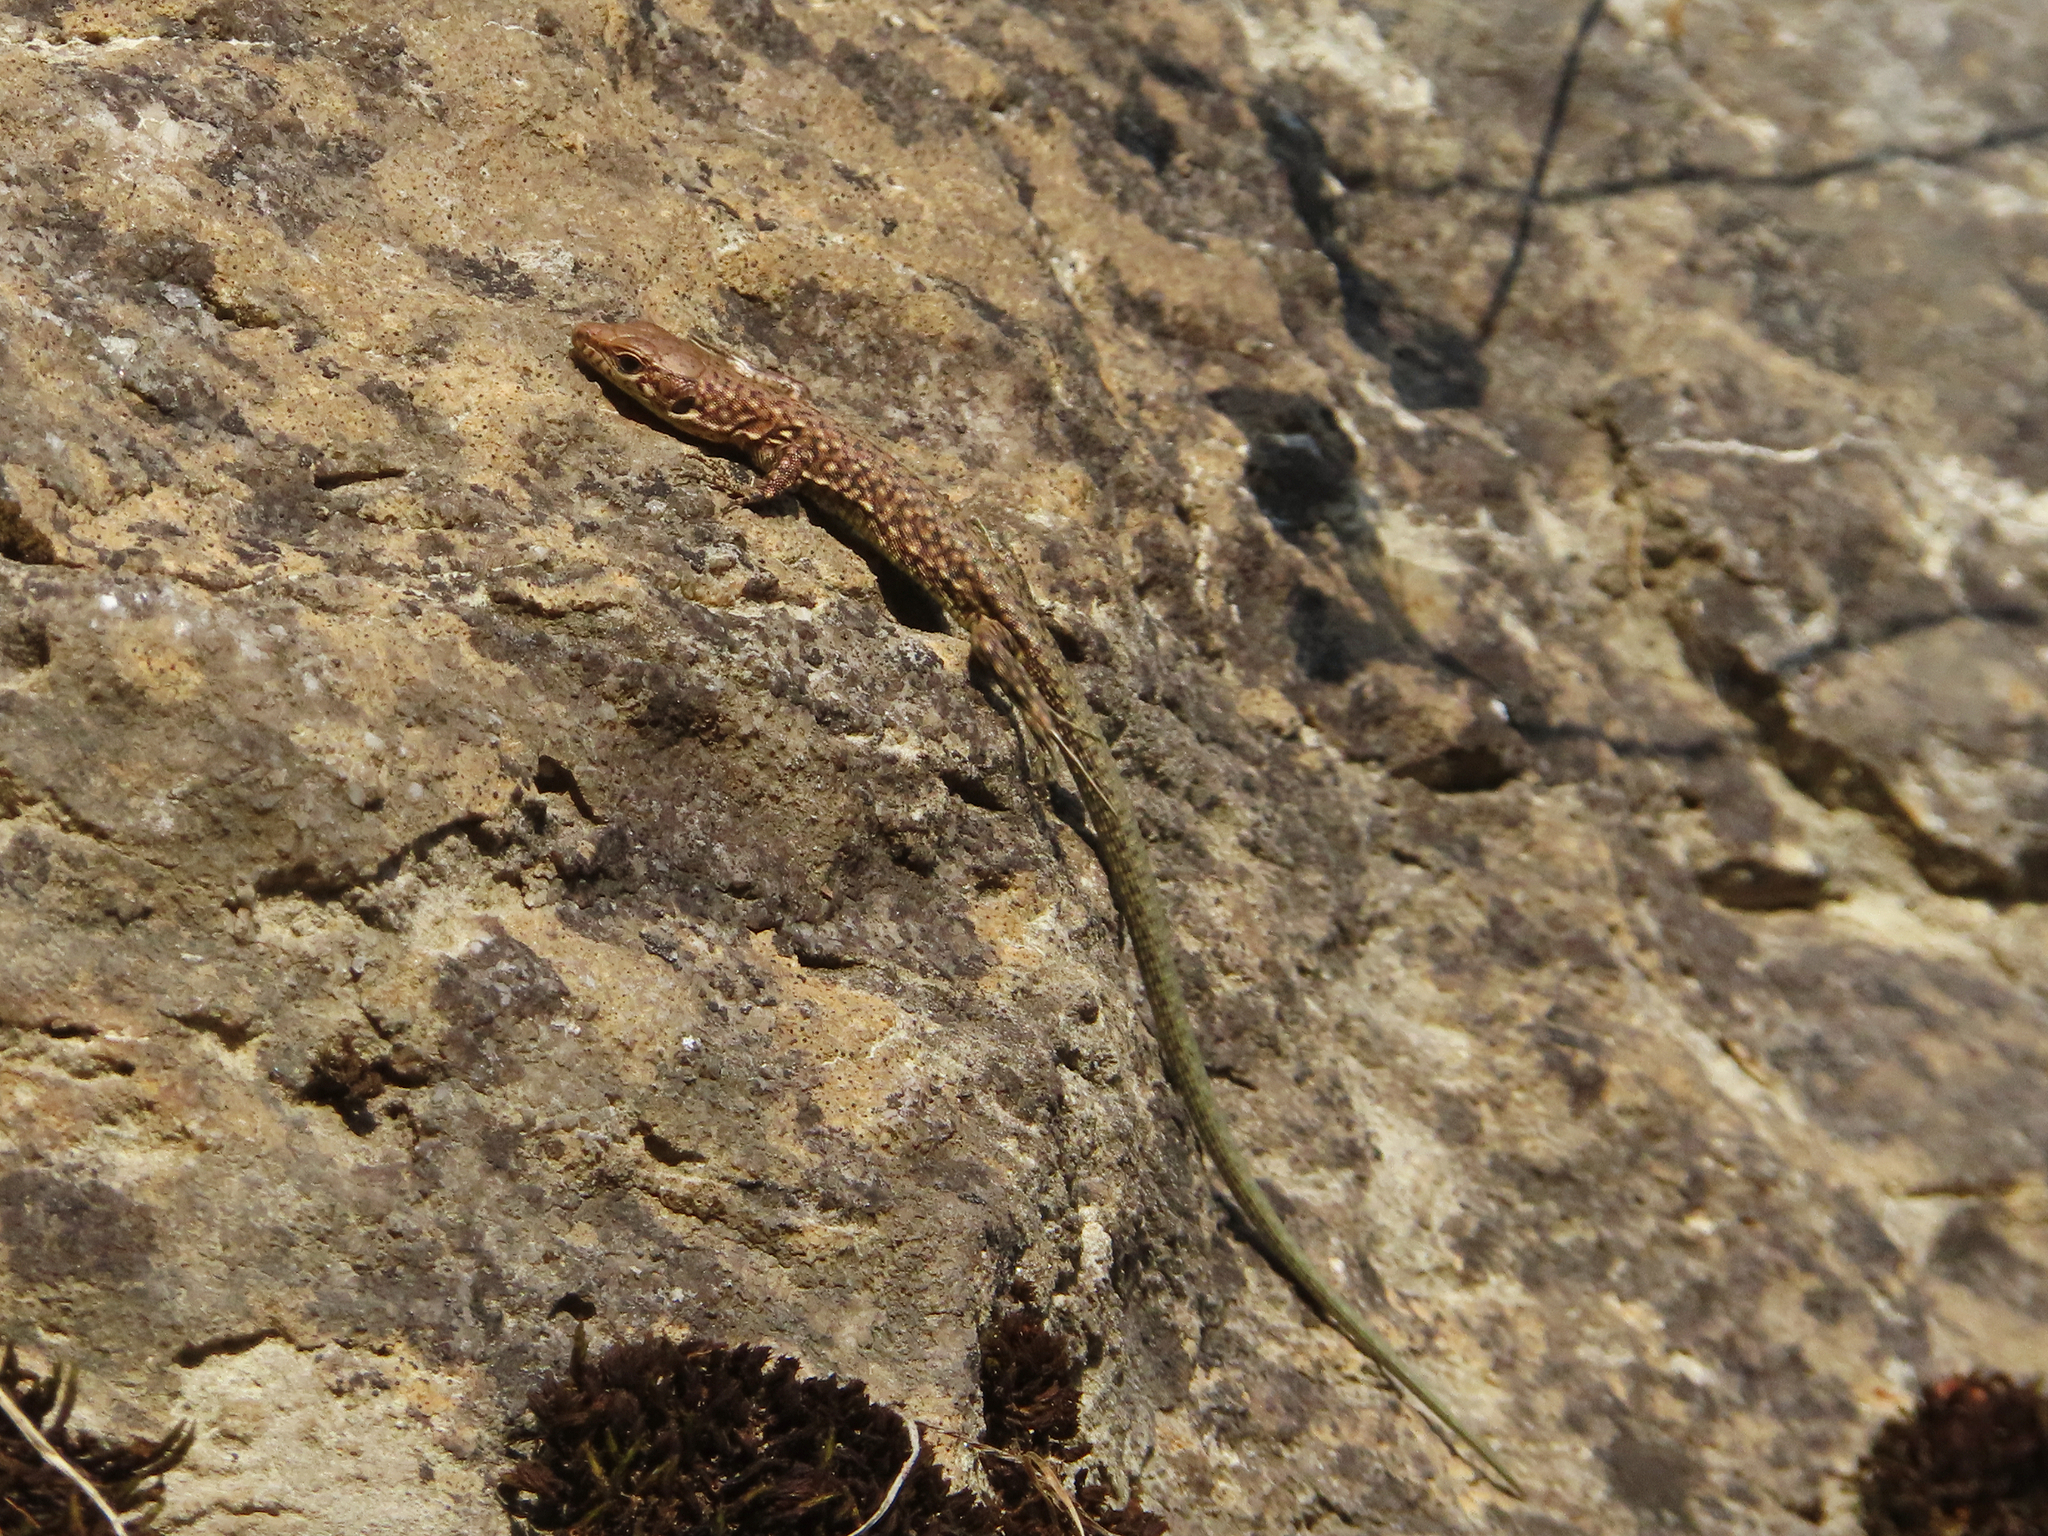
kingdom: Animalia
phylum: Chordata
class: Squamata
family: Lacertidae
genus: Darevskia
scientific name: Darevskia bithynica
